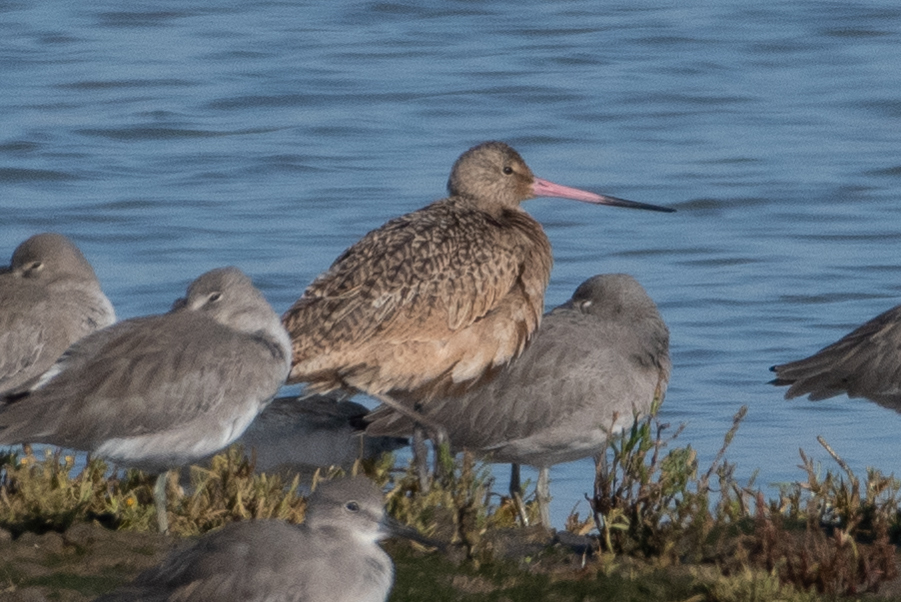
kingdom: Animalia
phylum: Chordata
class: Aves
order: Charadriiformes
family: Scolopacidae
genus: Limosa
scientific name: Limosa fedoa
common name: Marbled godwit
